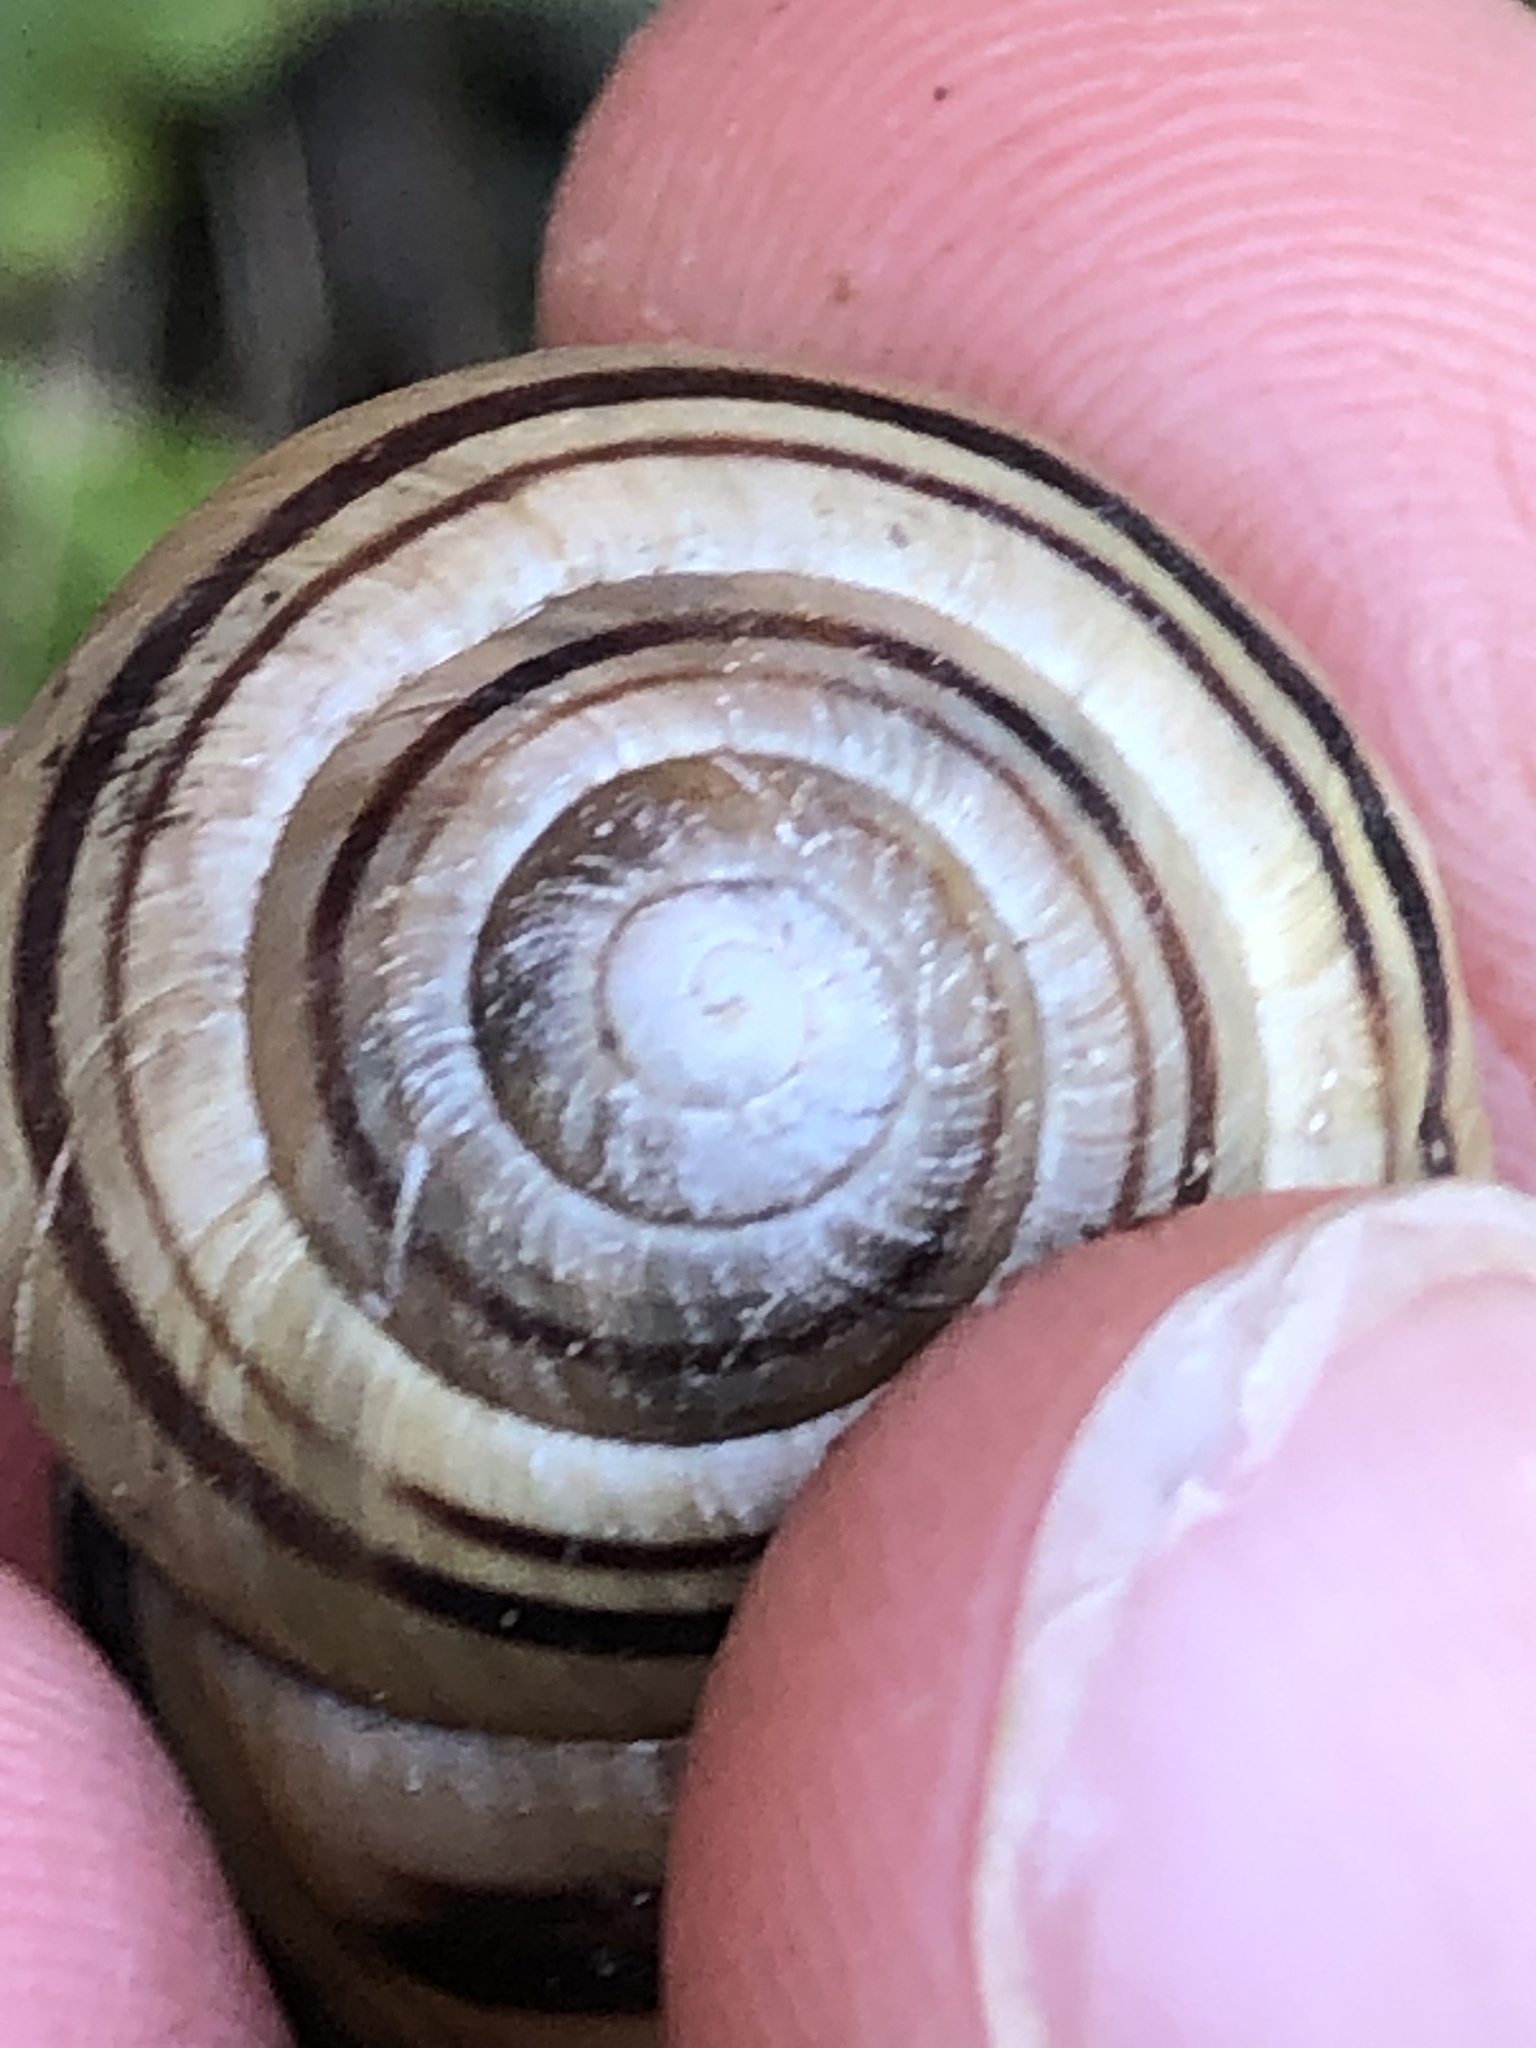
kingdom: Animalia
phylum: Mollusca
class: Gastropoda
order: Stylommatophora
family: Helicidae
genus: Cepaea
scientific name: Cepaea nemoralis
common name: Grovesnail
